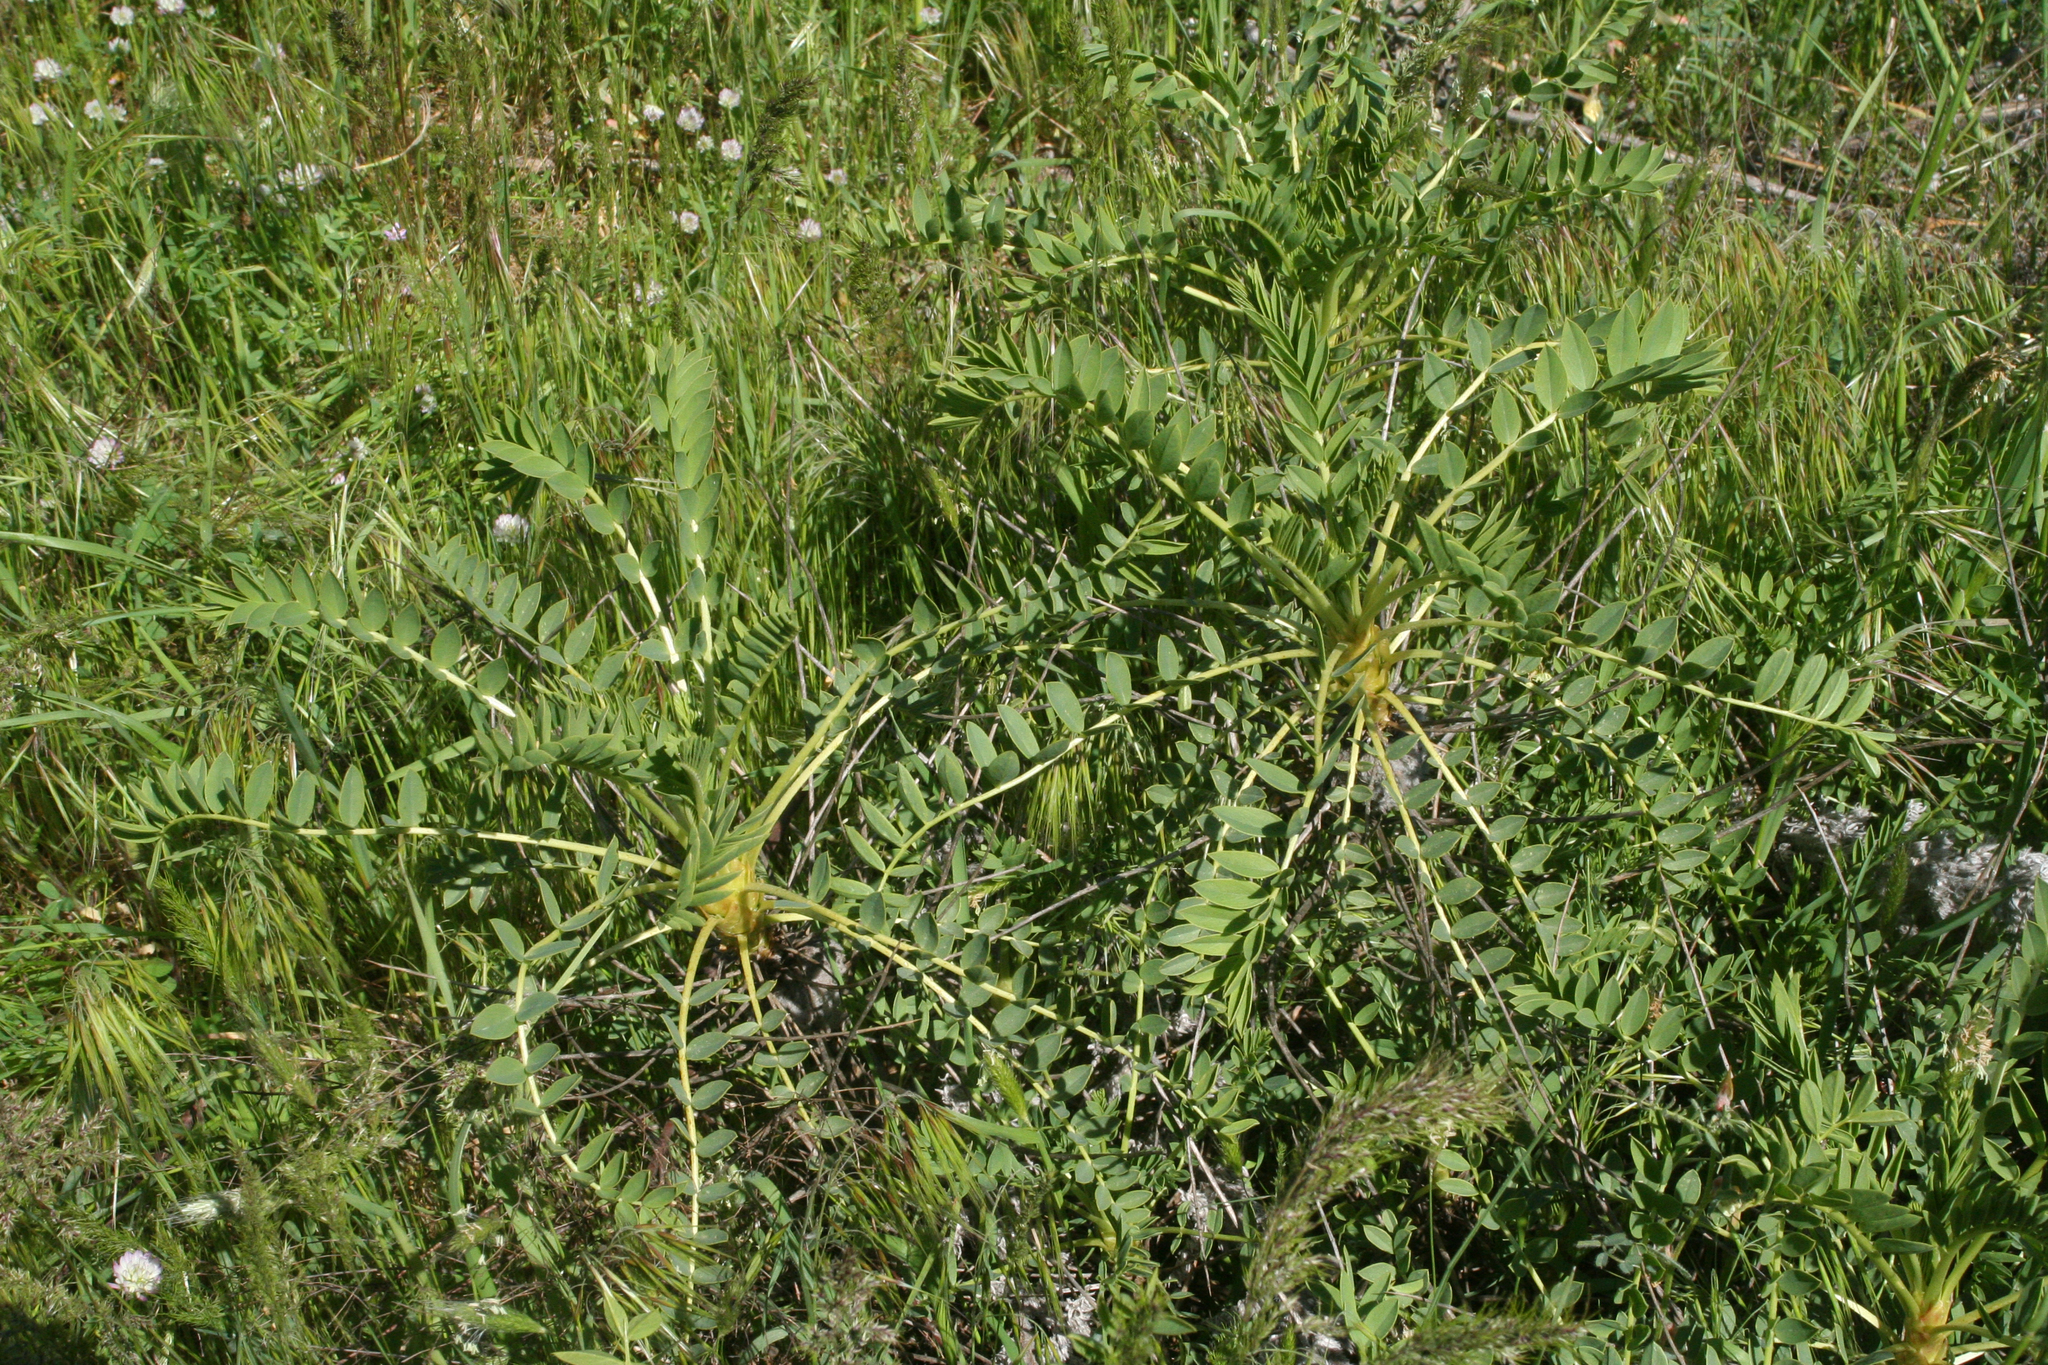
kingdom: Plantae
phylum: Tracheophyta
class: Magnoliopsida
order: Fabales
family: Fabaceae
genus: Astragalus
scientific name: Astragalus macrocarpus
